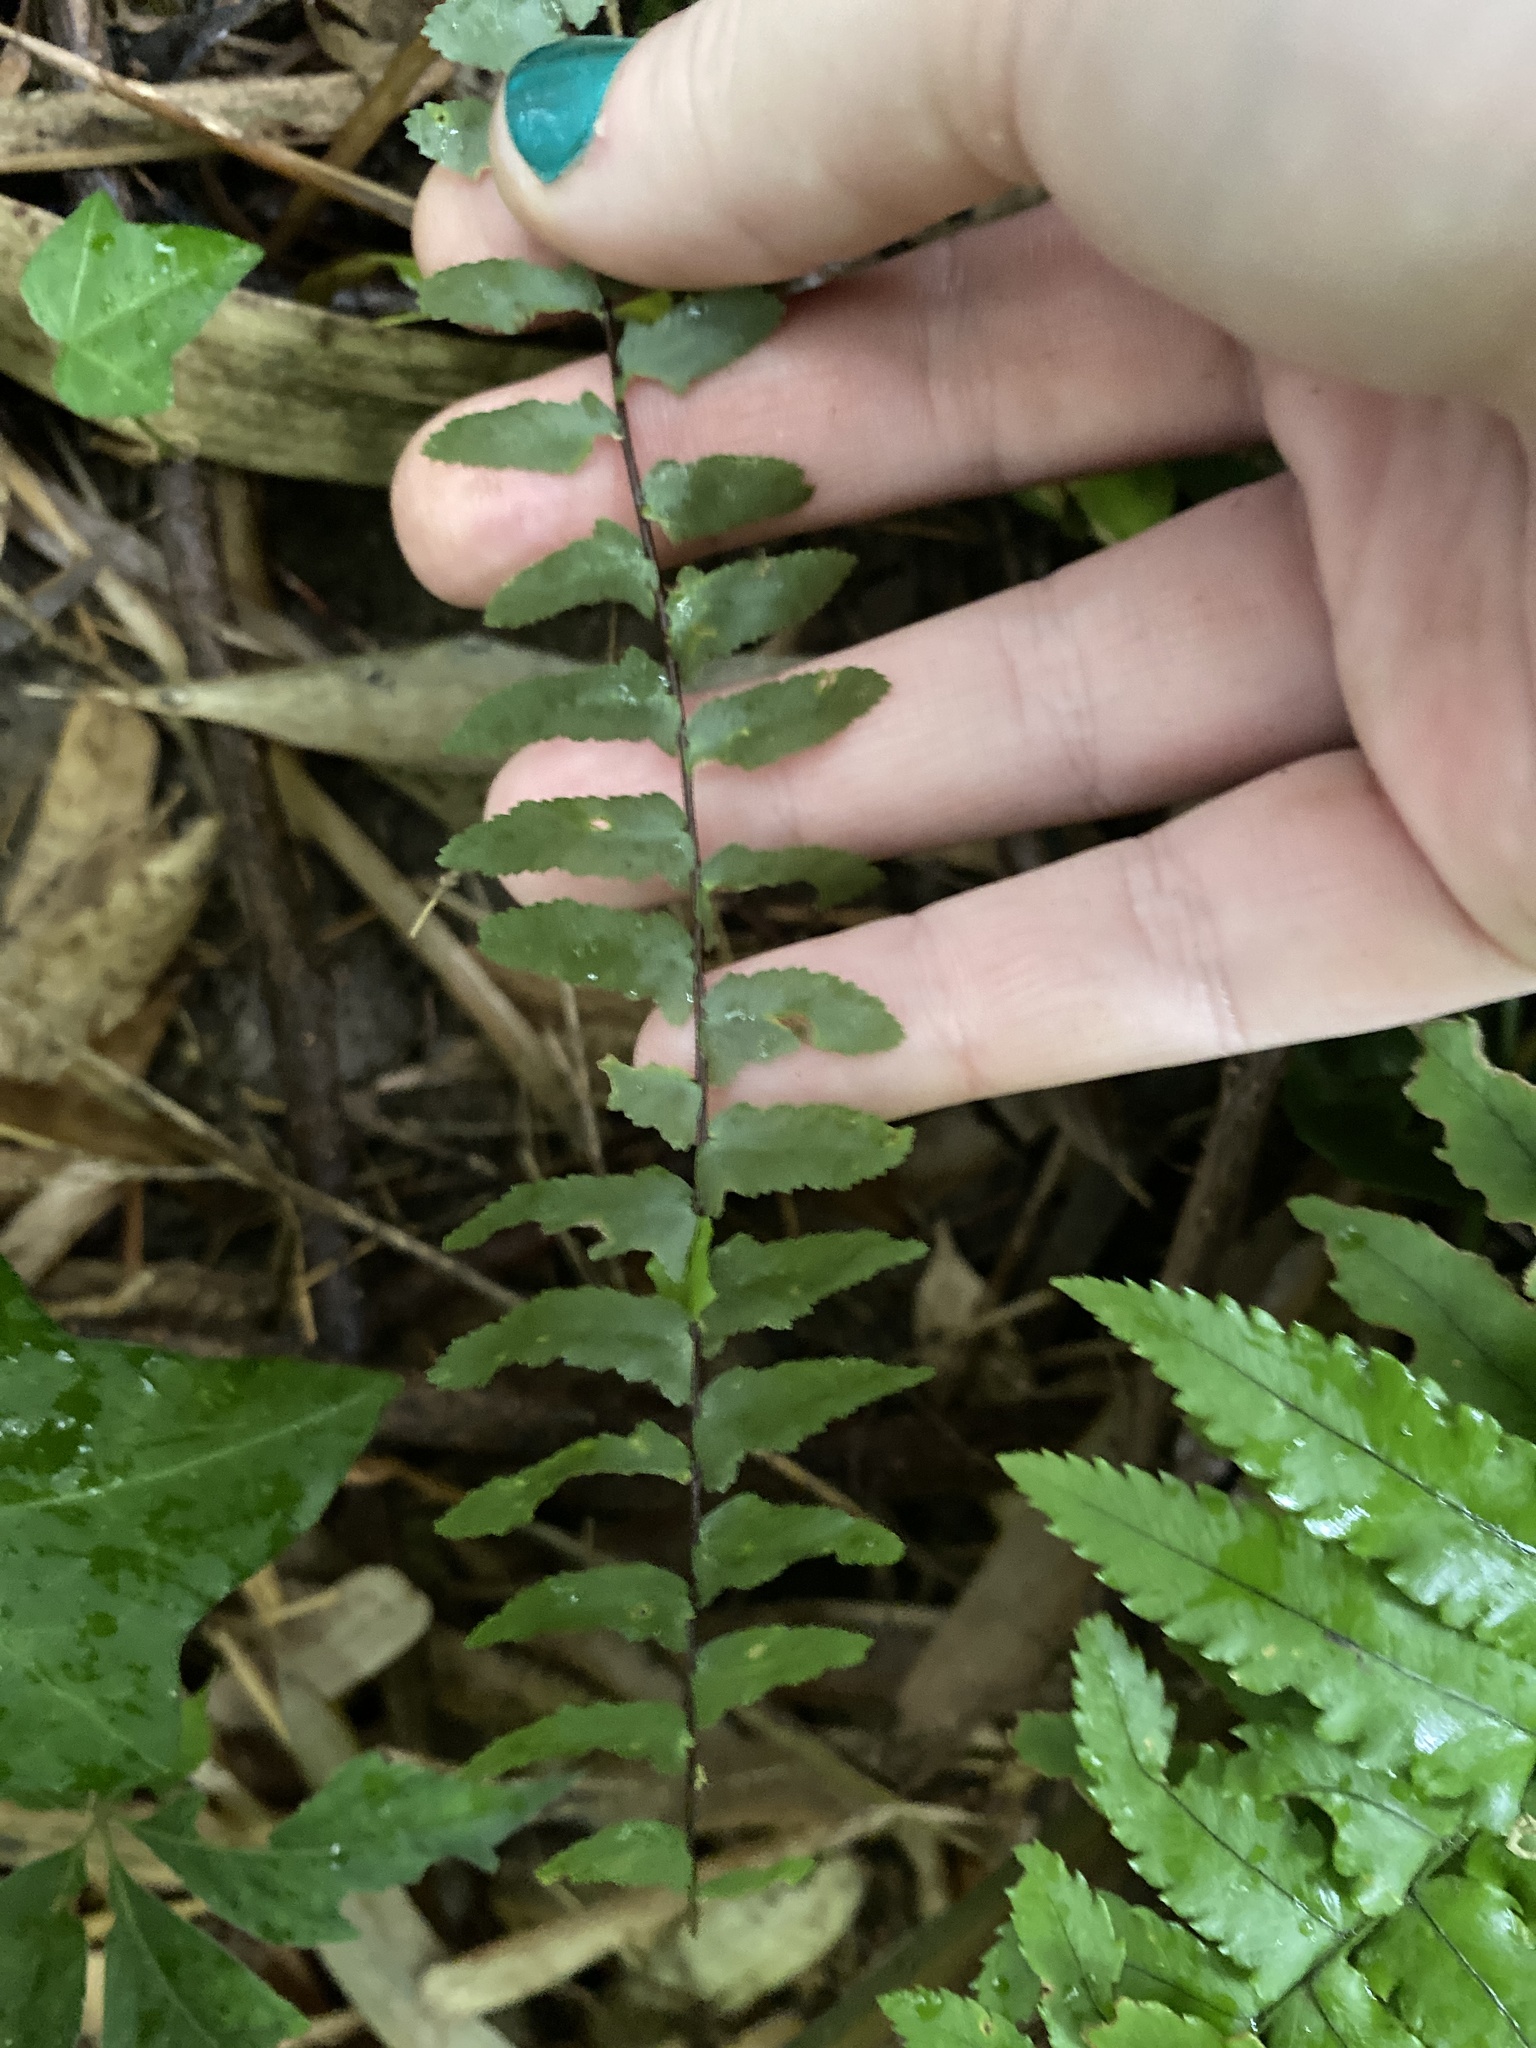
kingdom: Plantae
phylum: Tracheophyta
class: Polypodiopsida
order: Polypodiales
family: Aspleniaceae
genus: Asplenium
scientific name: Asplenium platyneuron
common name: Ebony spleenwort
